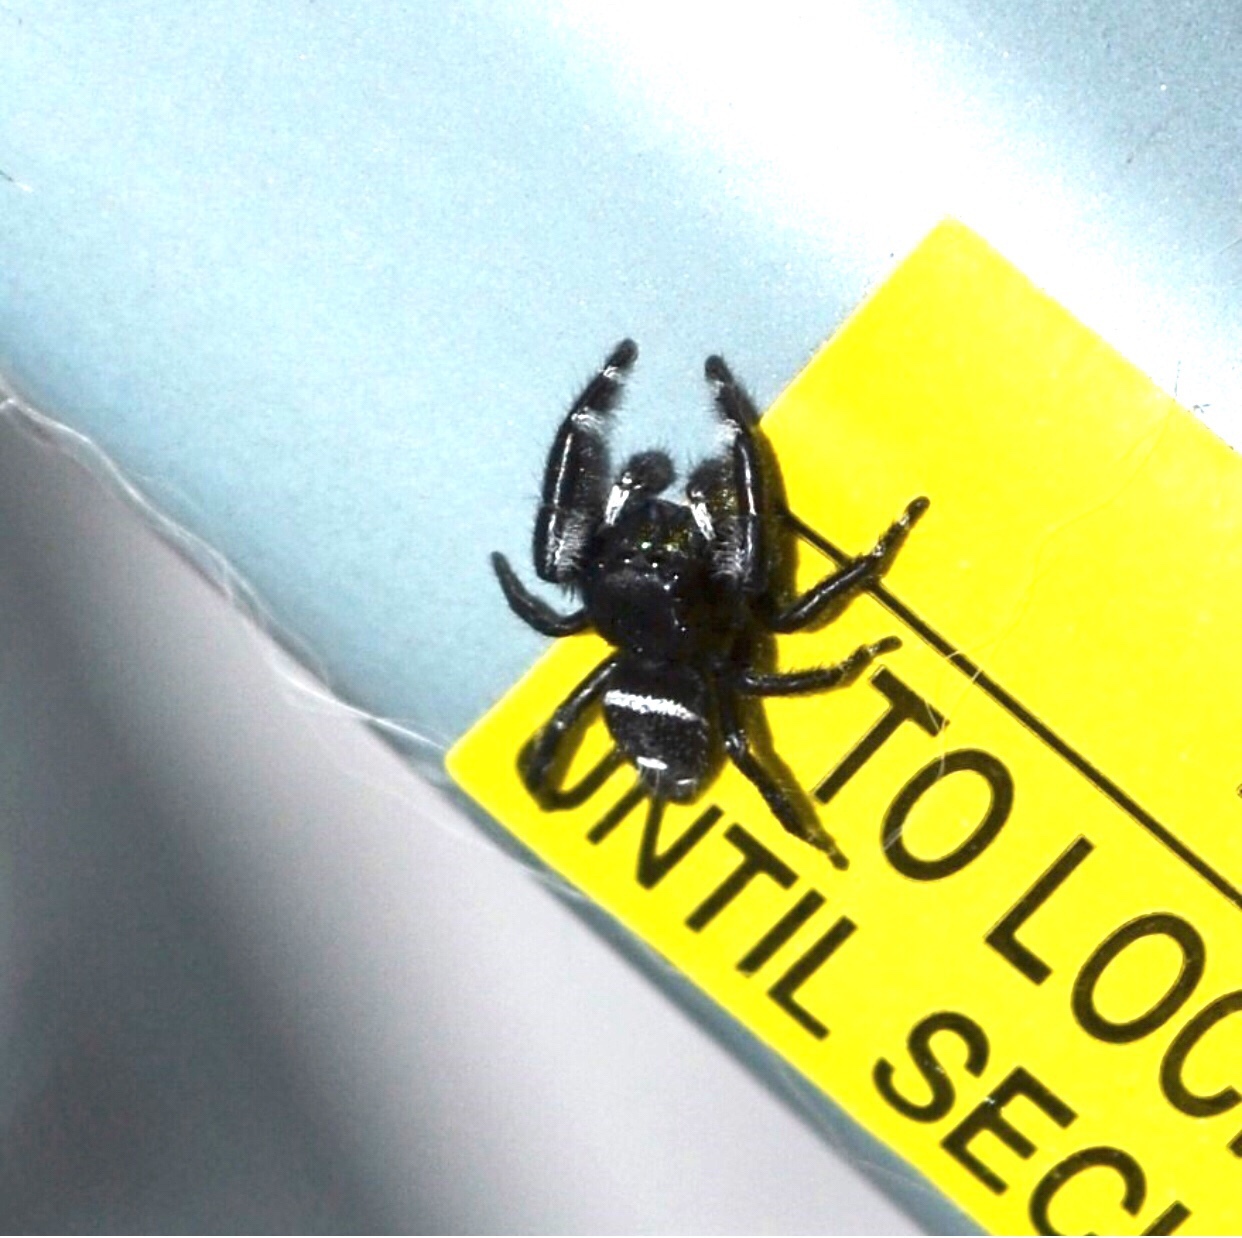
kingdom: Animalia
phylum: Arthropoda
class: Arachnida
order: Araneae
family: Salticidae
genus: Phidippus
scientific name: Phidippus audax
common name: Bold jumper
